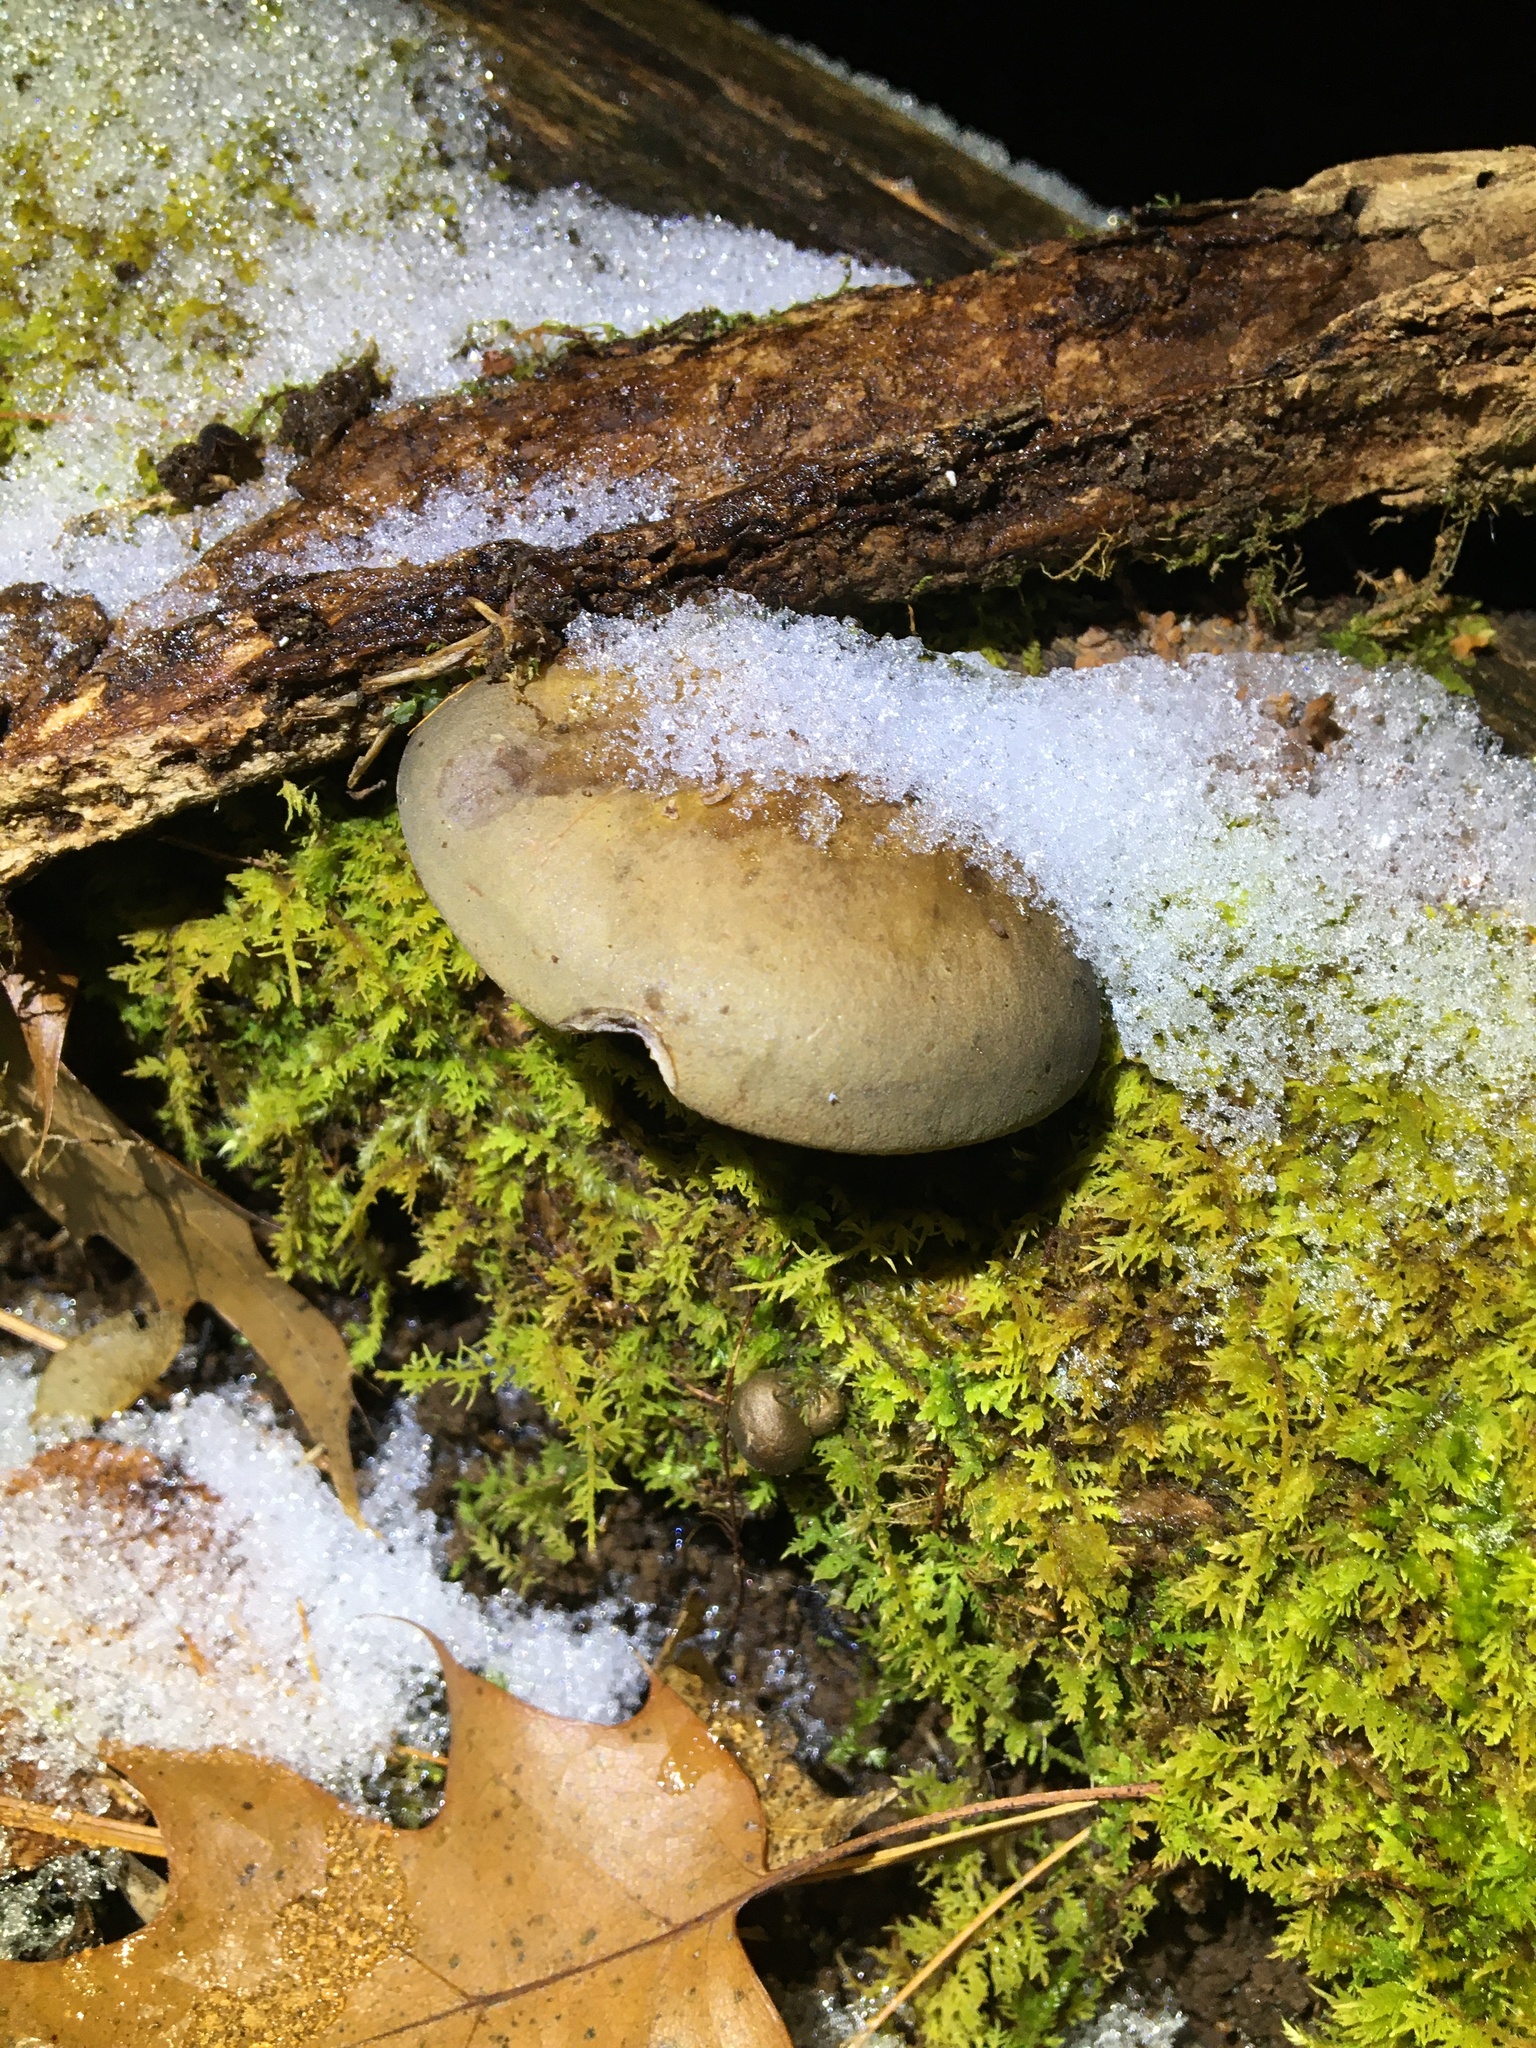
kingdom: Fungi
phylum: Basidiomycota
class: Agaricomycetes
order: Agaricales
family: Sarcomyxaceae
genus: Sarcomyxa
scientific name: Sarcomyxa serotina
